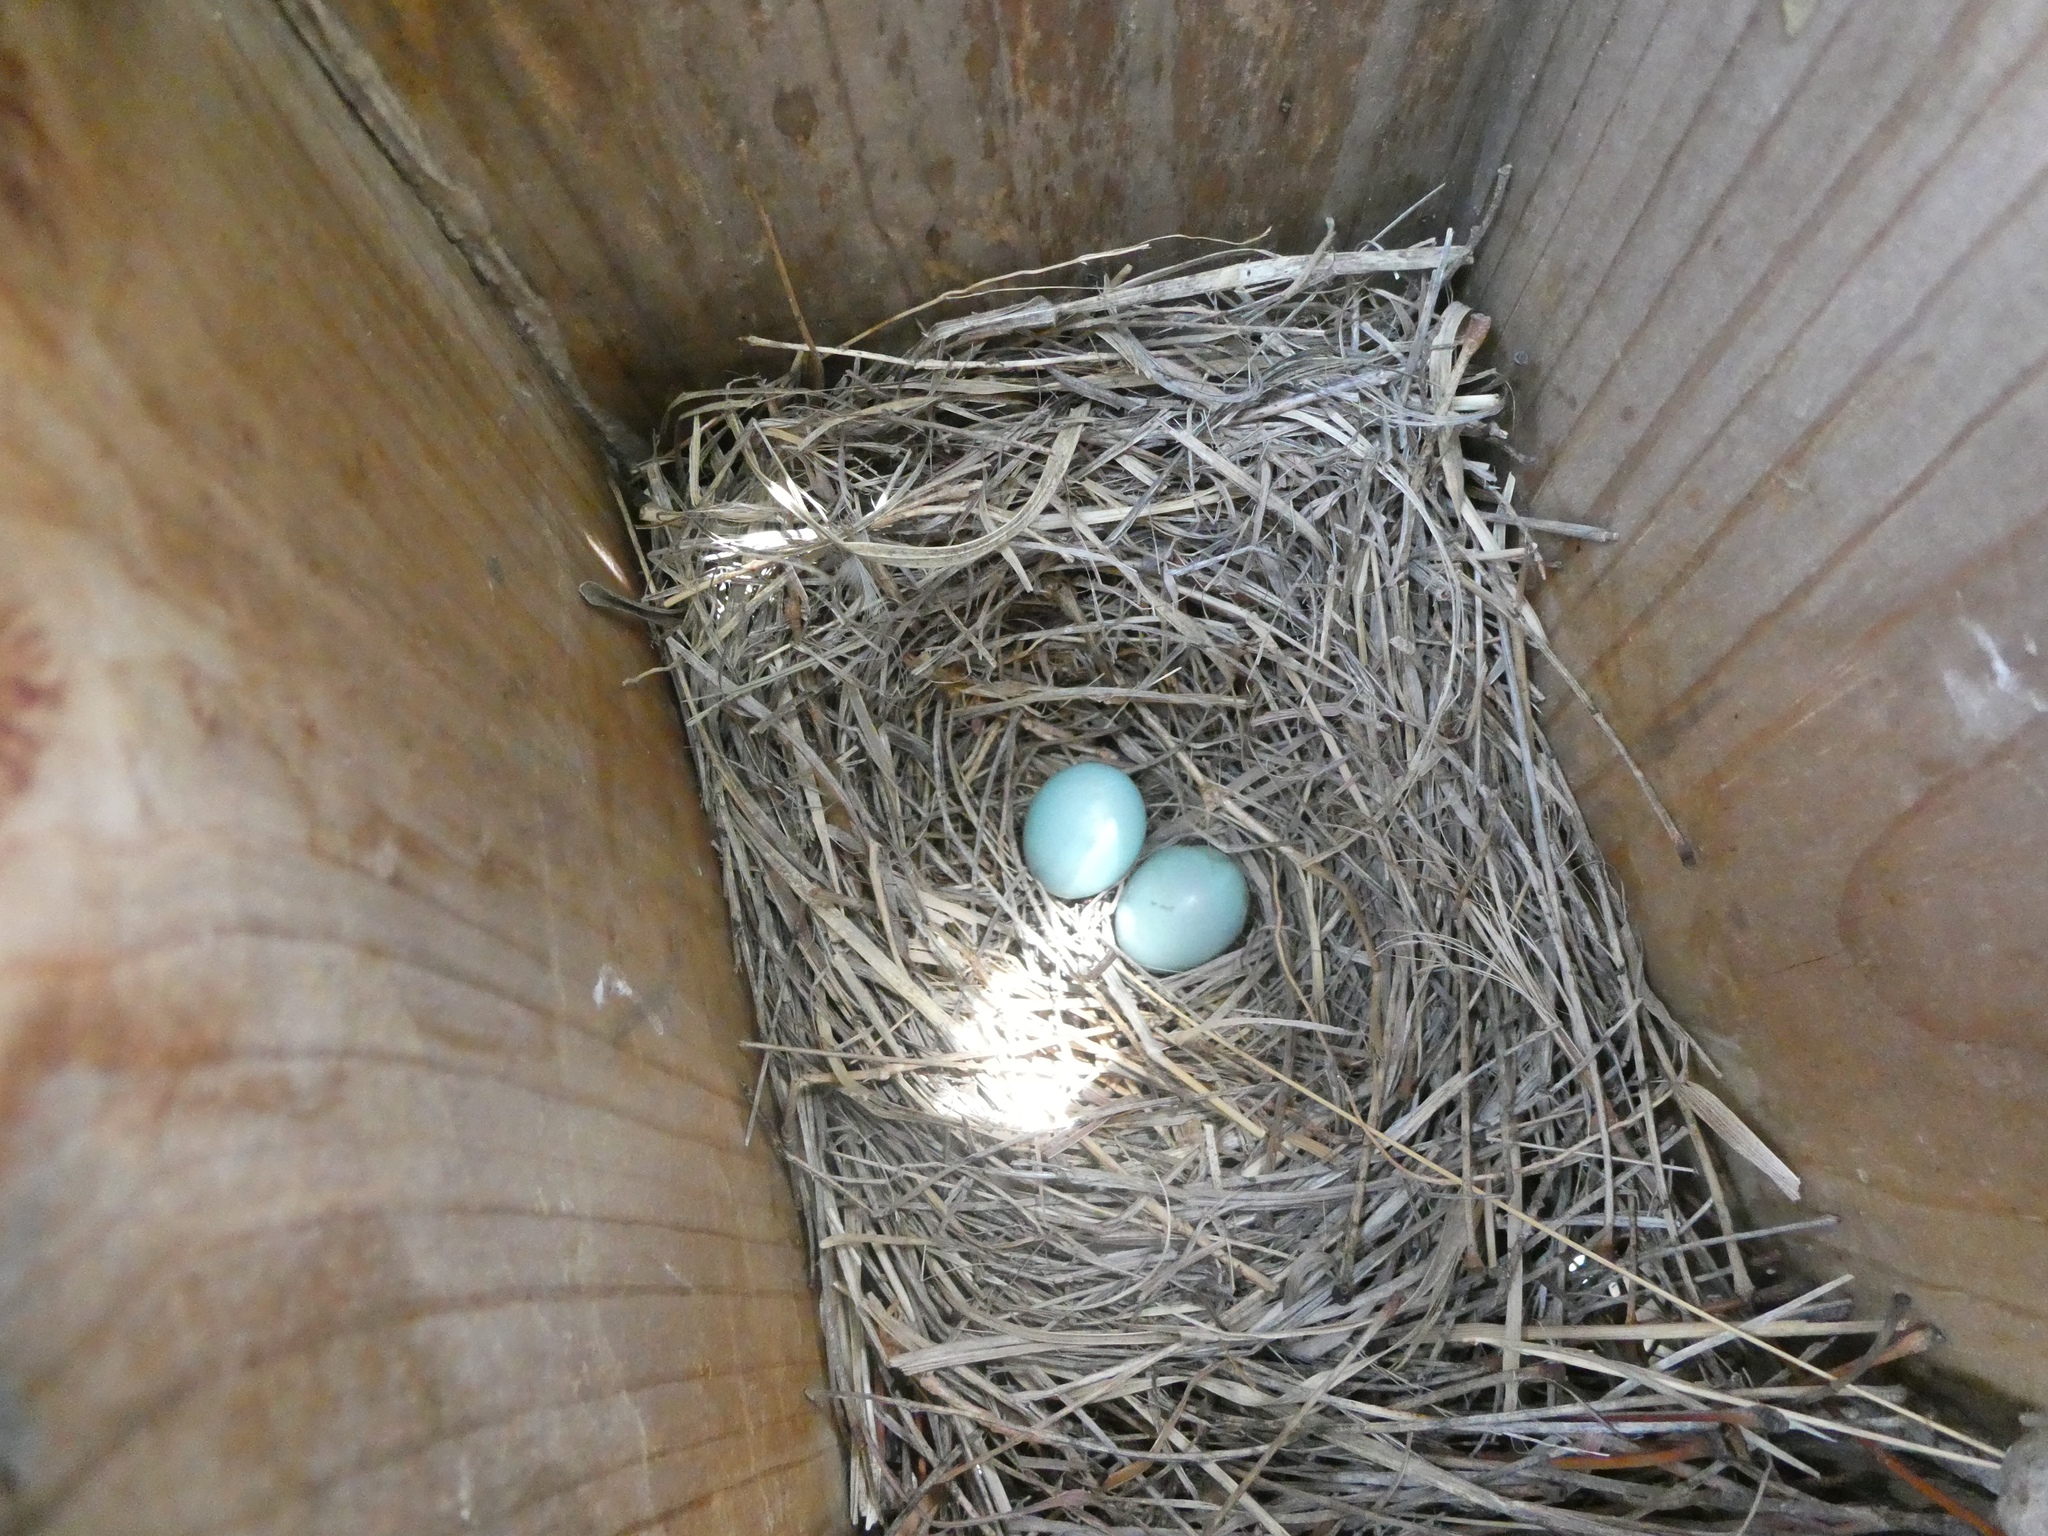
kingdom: Animalia
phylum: Chordata
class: Aves
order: Passeriformes
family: Turdidae
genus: Sialia
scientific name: Sialia sialis
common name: Eastern bluebird
